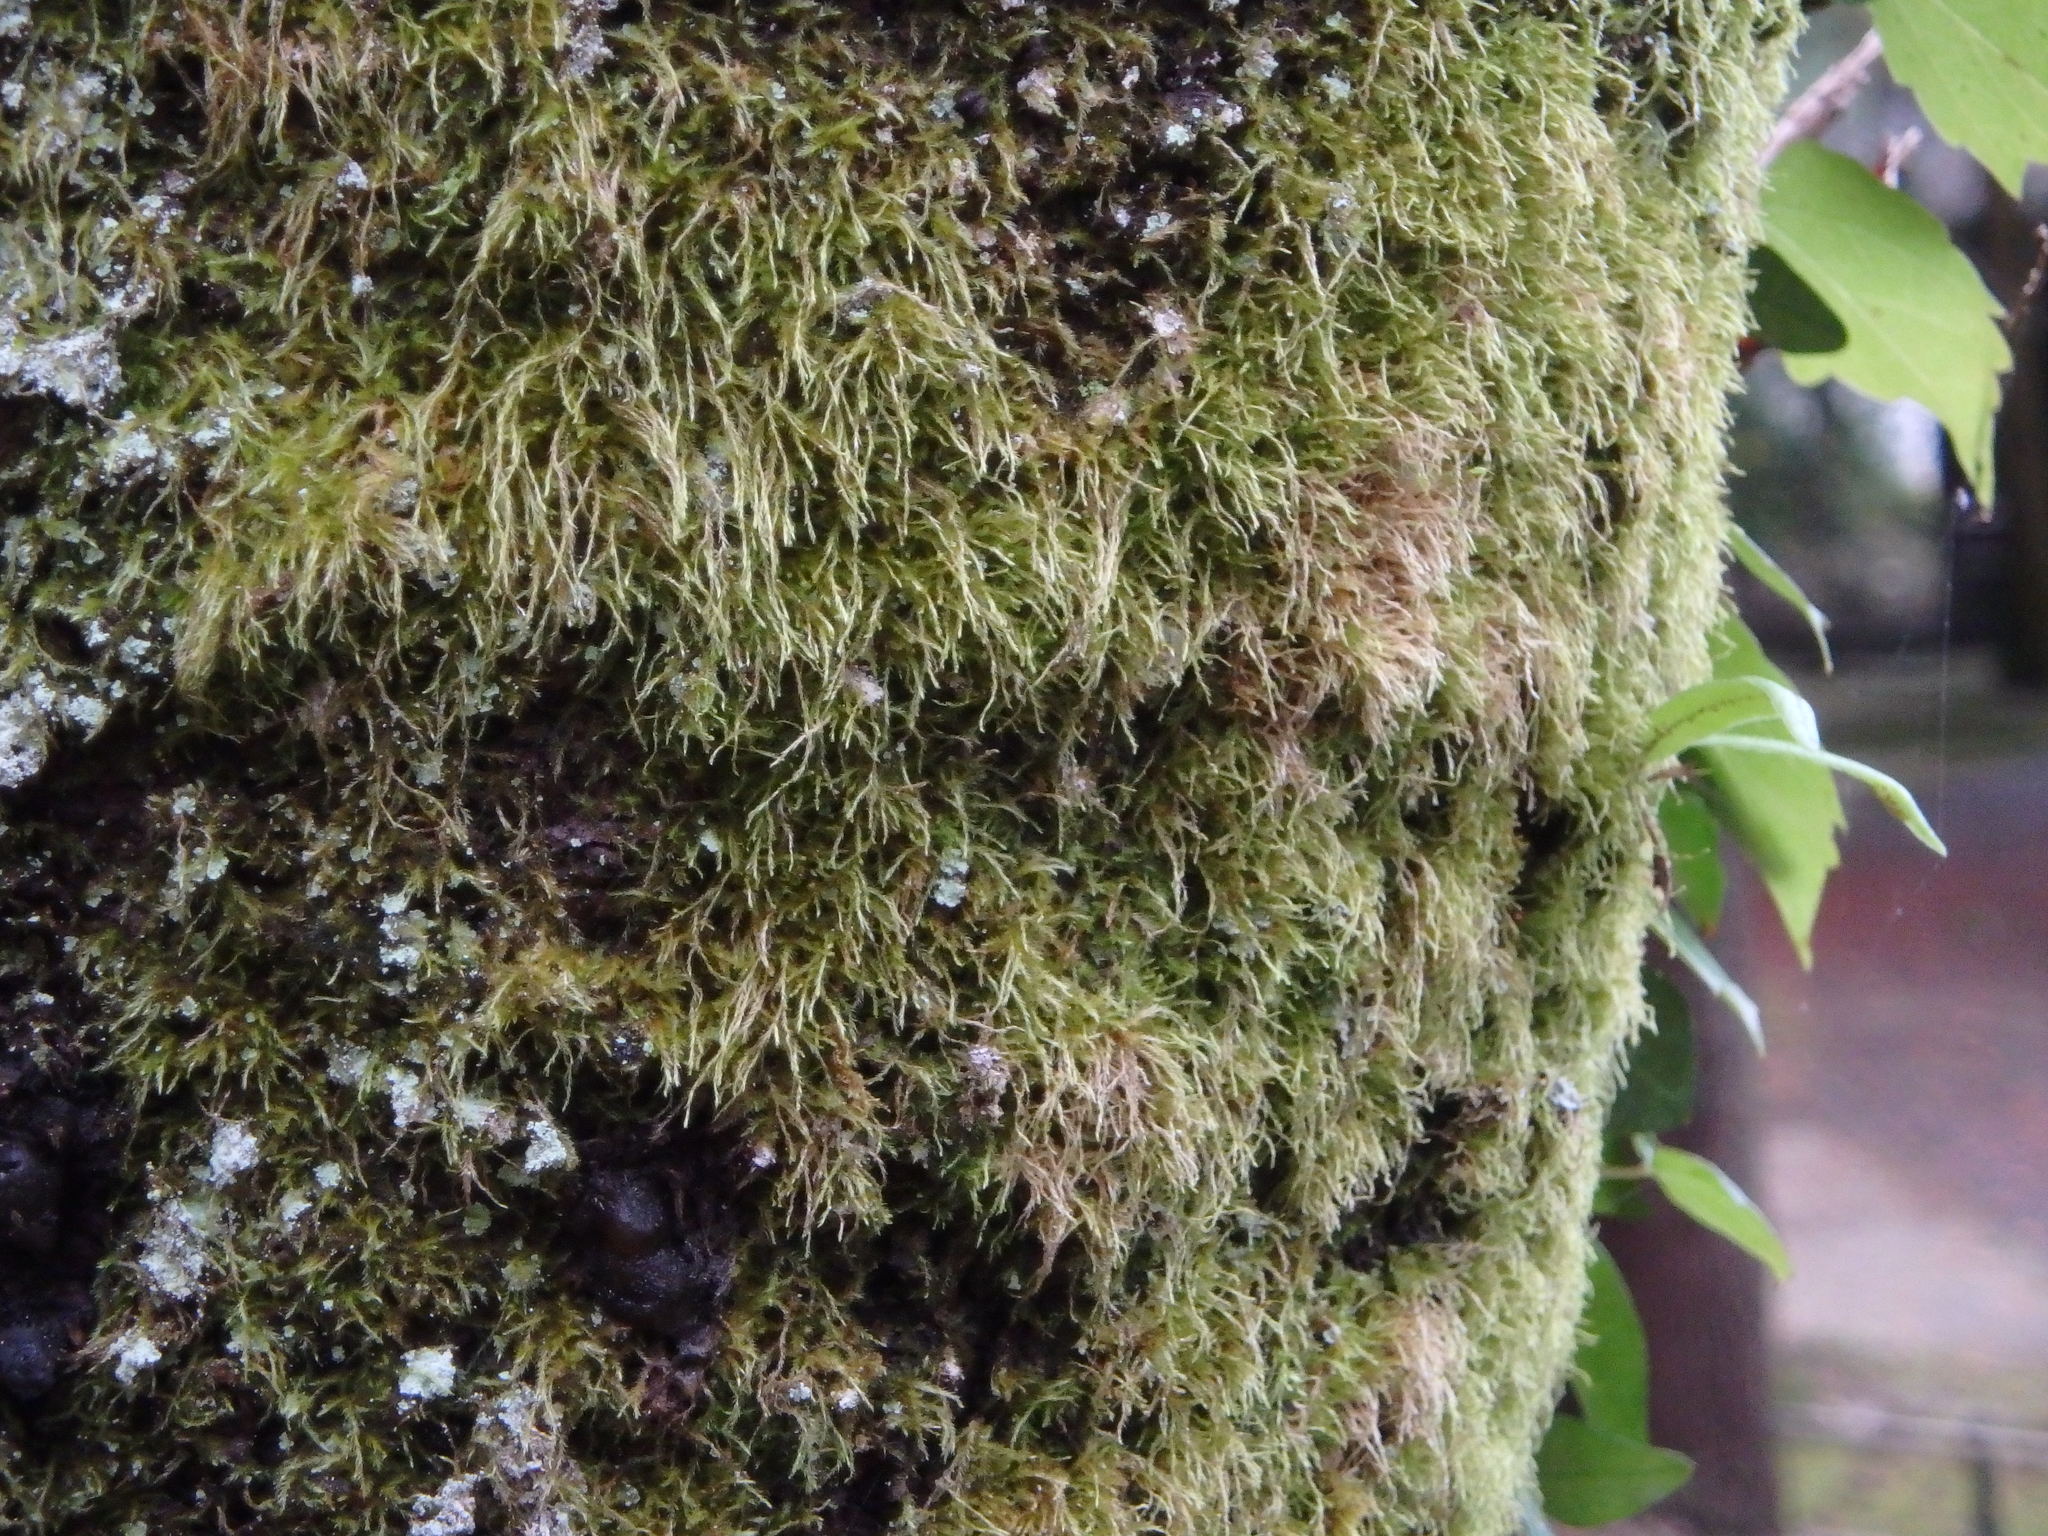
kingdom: Plantae
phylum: Bryophyta
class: Bryopsida
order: Hypnales
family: Fabroniaceae
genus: Fabronia
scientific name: Fabronia matsumurae
